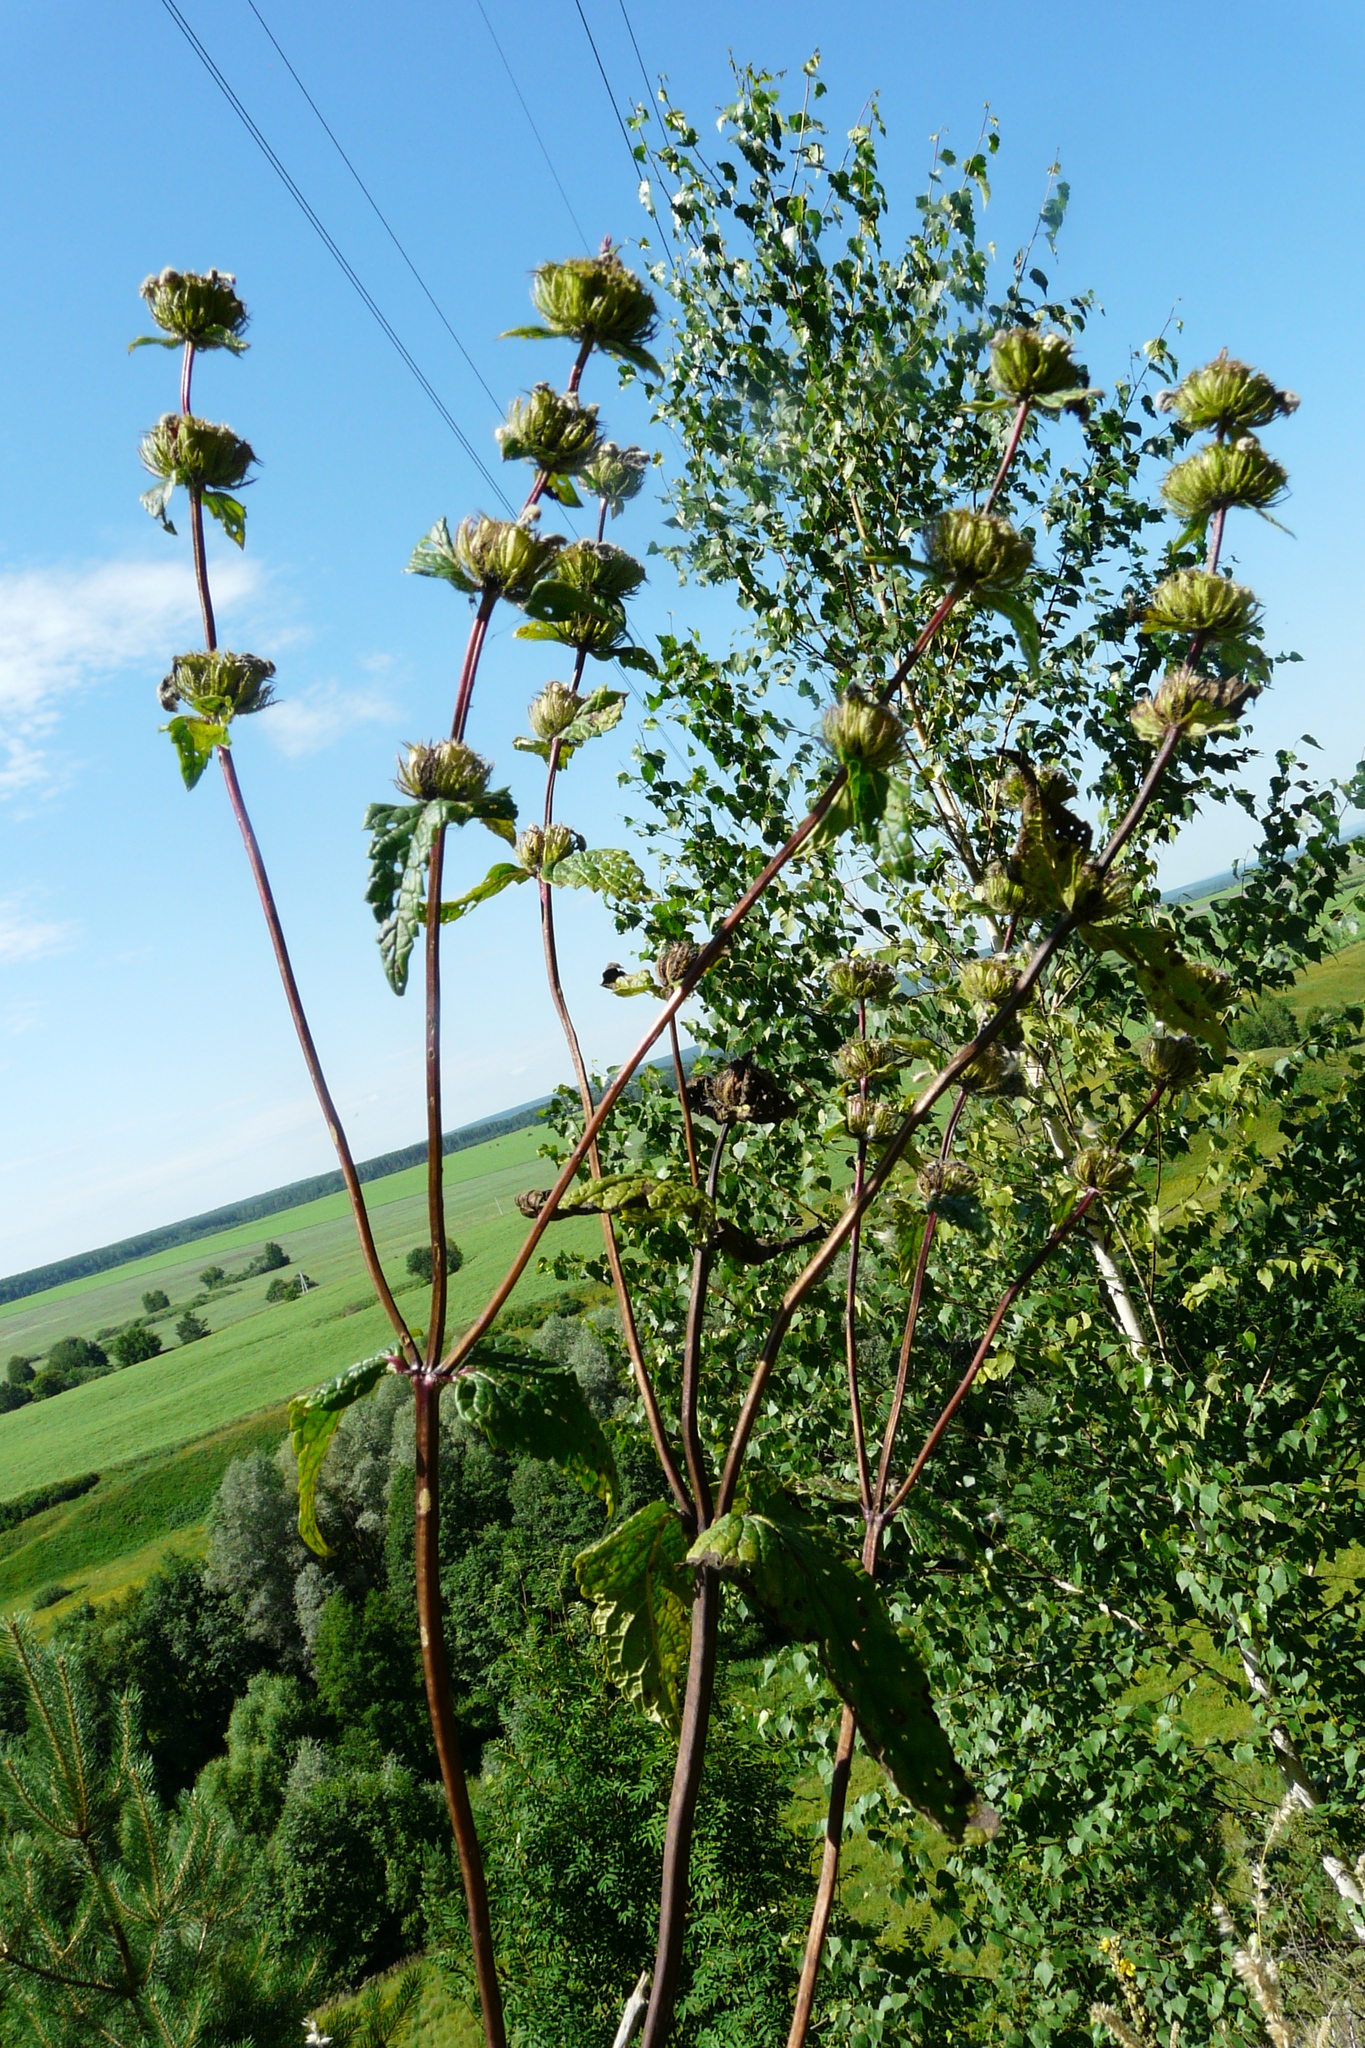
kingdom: Plantae
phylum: Tracheophyta
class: Magnoliopsida
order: Lamiales
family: Lamiaceae
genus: Phlomoides
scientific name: Phlomoides tuberosa
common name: Tuberous jerusalem sage
